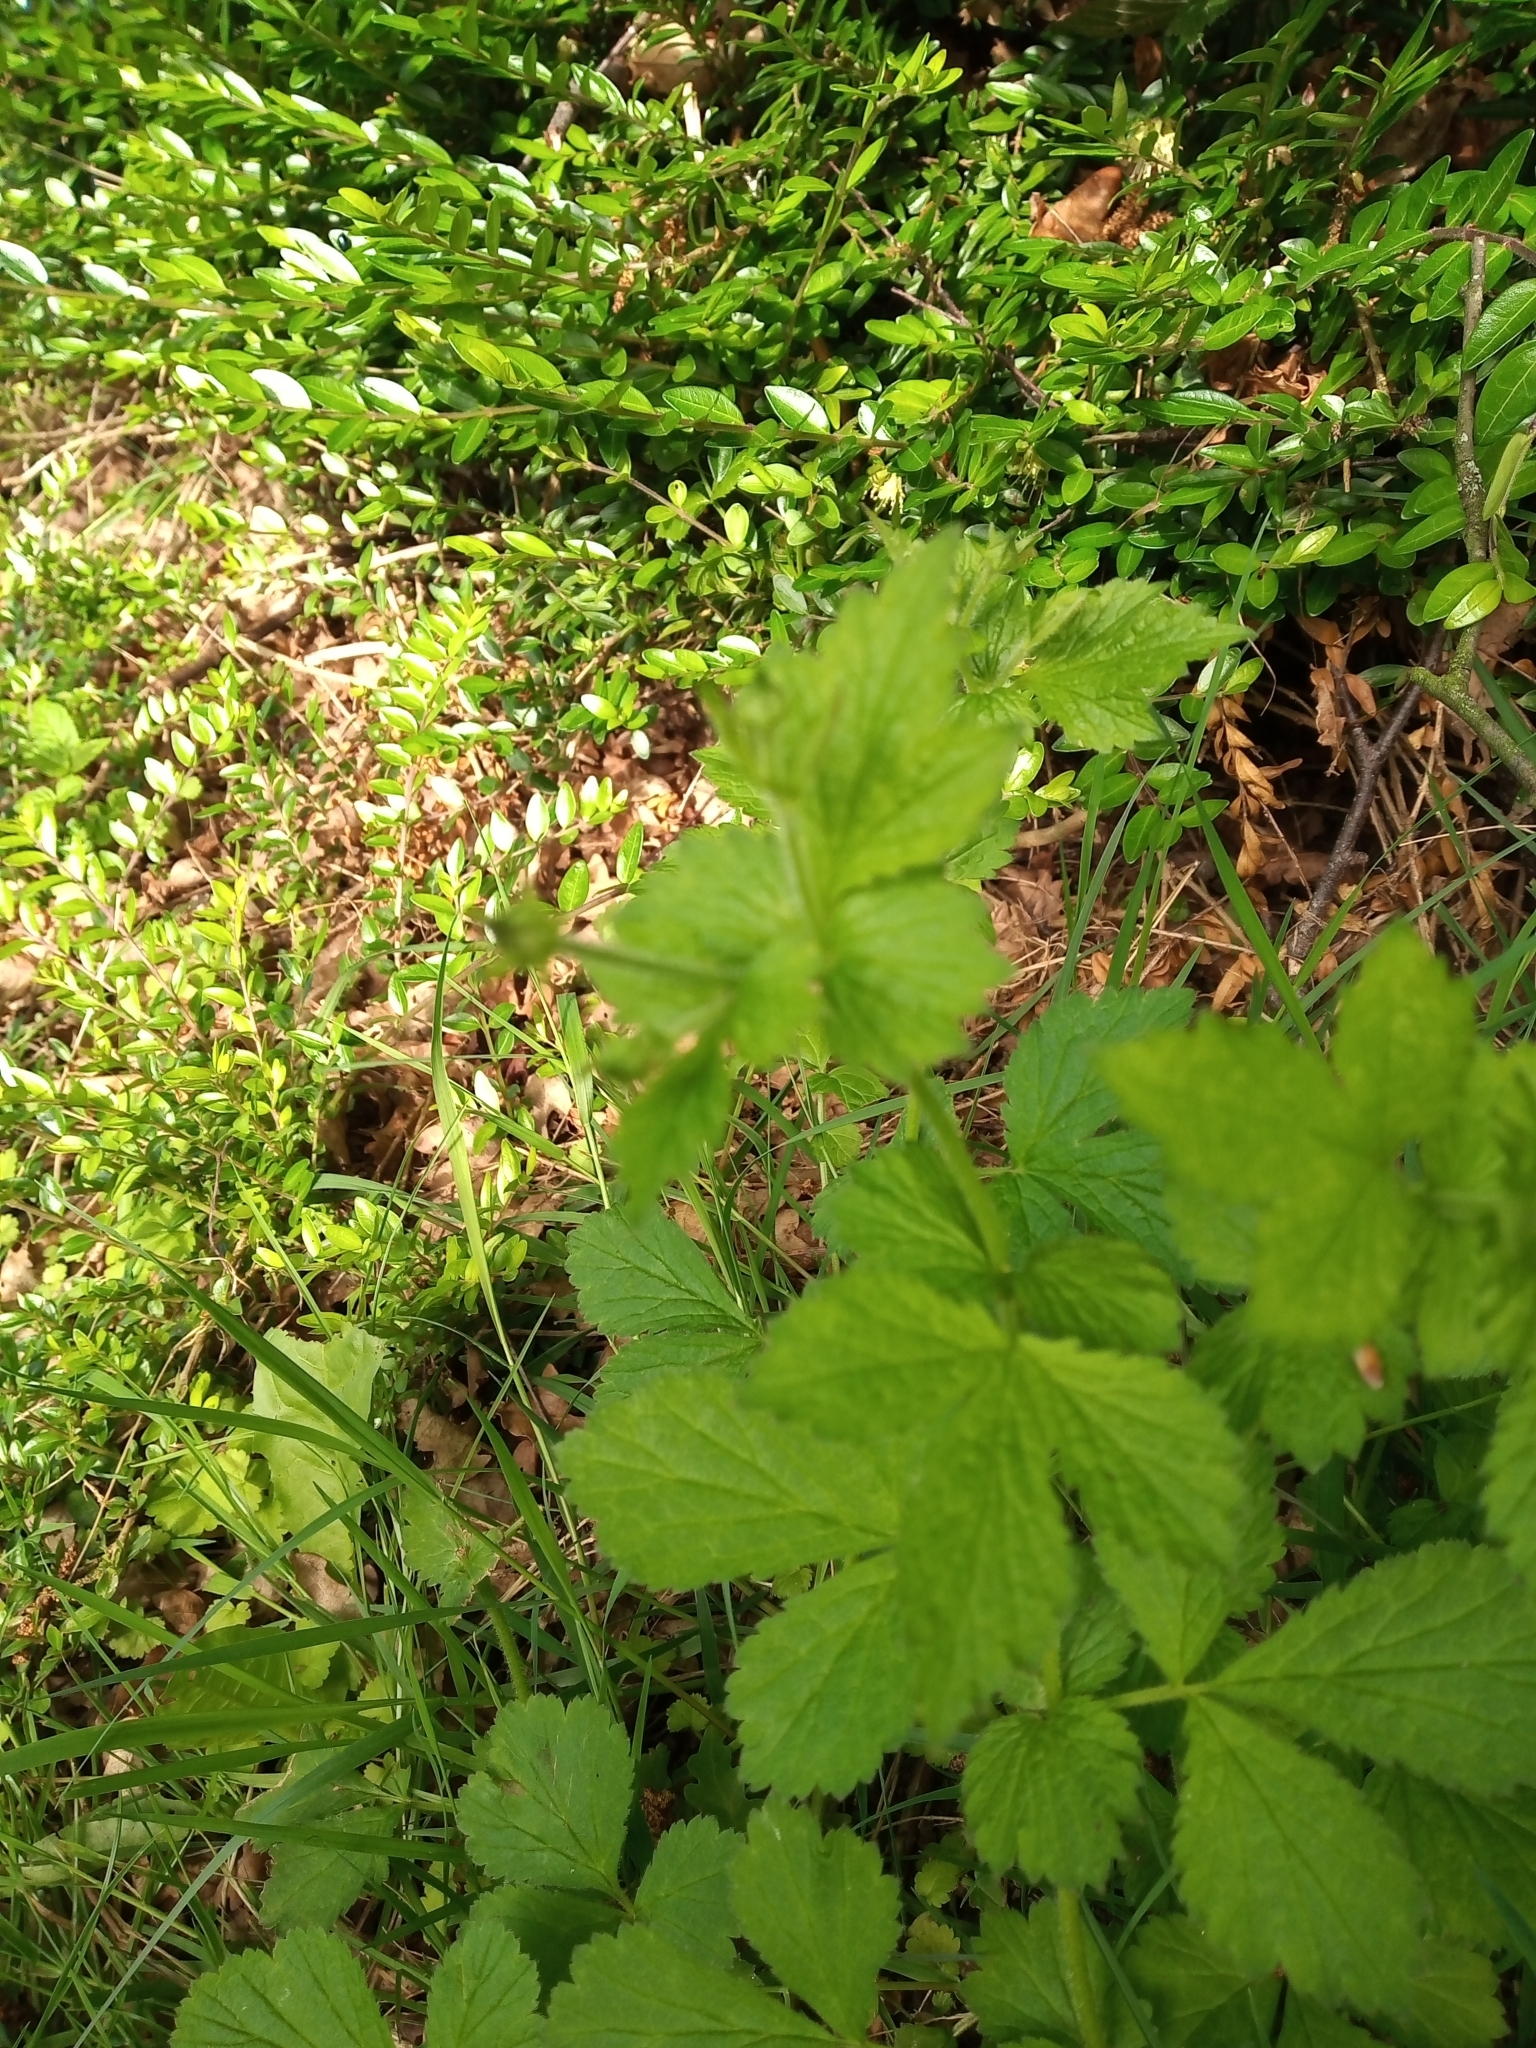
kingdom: Plantae
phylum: Tracheophyta
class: Magnoliopsida
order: Rosales
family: Rosaceae
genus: Geum
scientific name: Geum urbanum
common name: Wood avens
